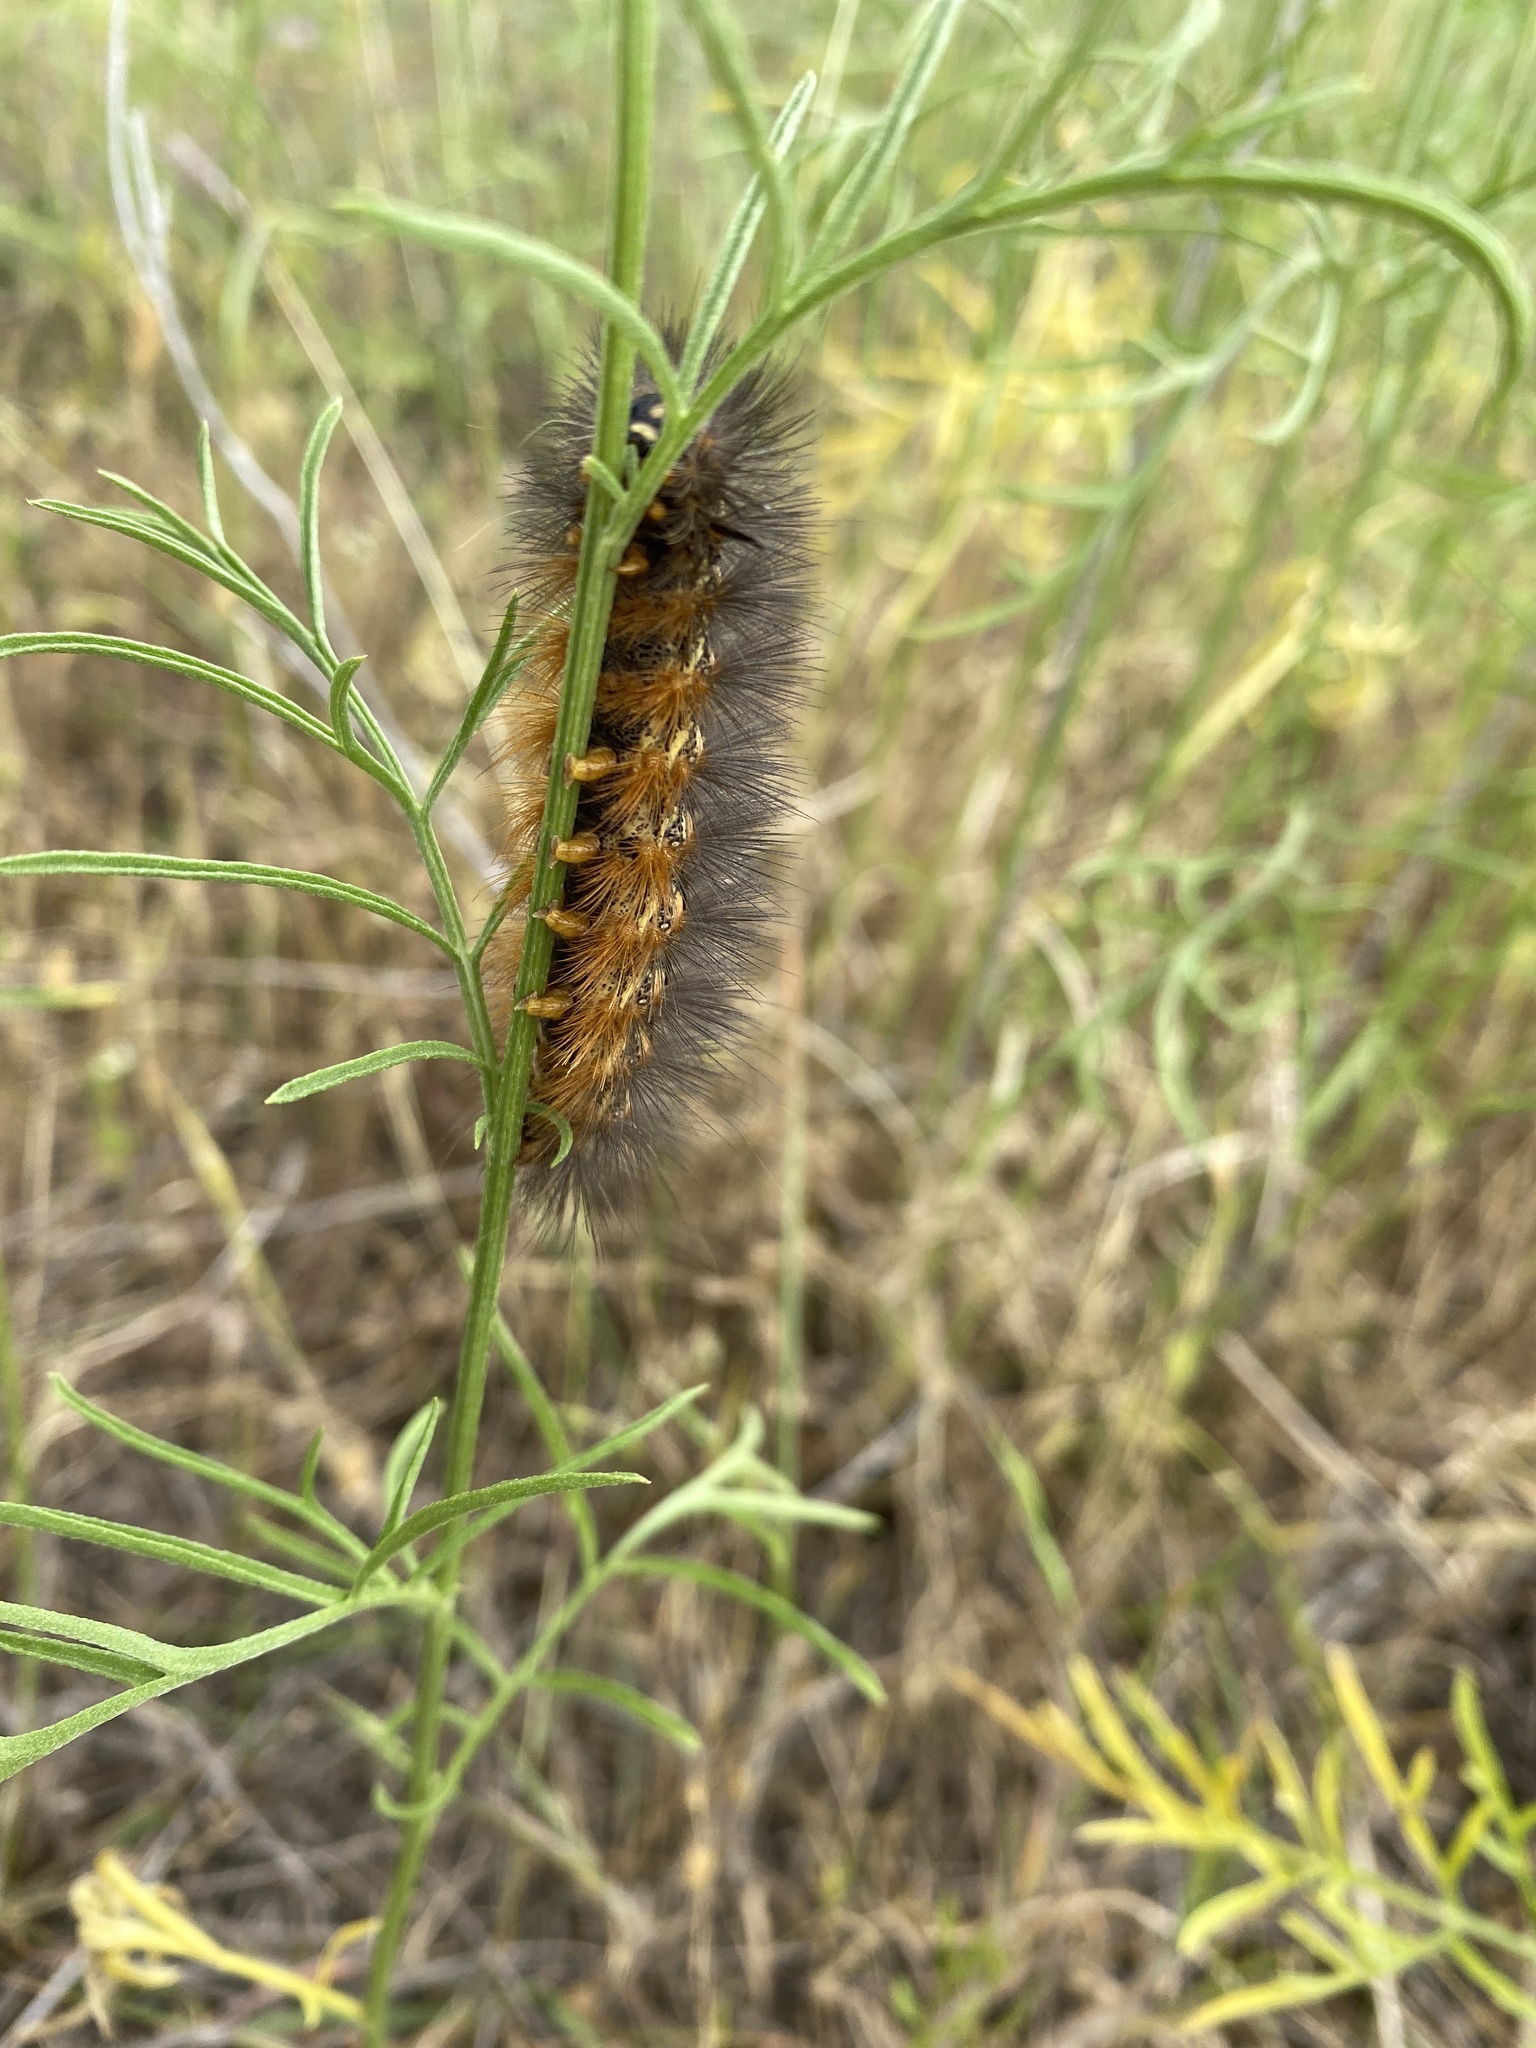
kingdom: Animalia
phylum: Arthropoda
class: Insecta
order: Lepidoptera
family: Erebidae
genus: Estigmene
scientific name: Estigmene acrea
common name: Salt marsh moth
